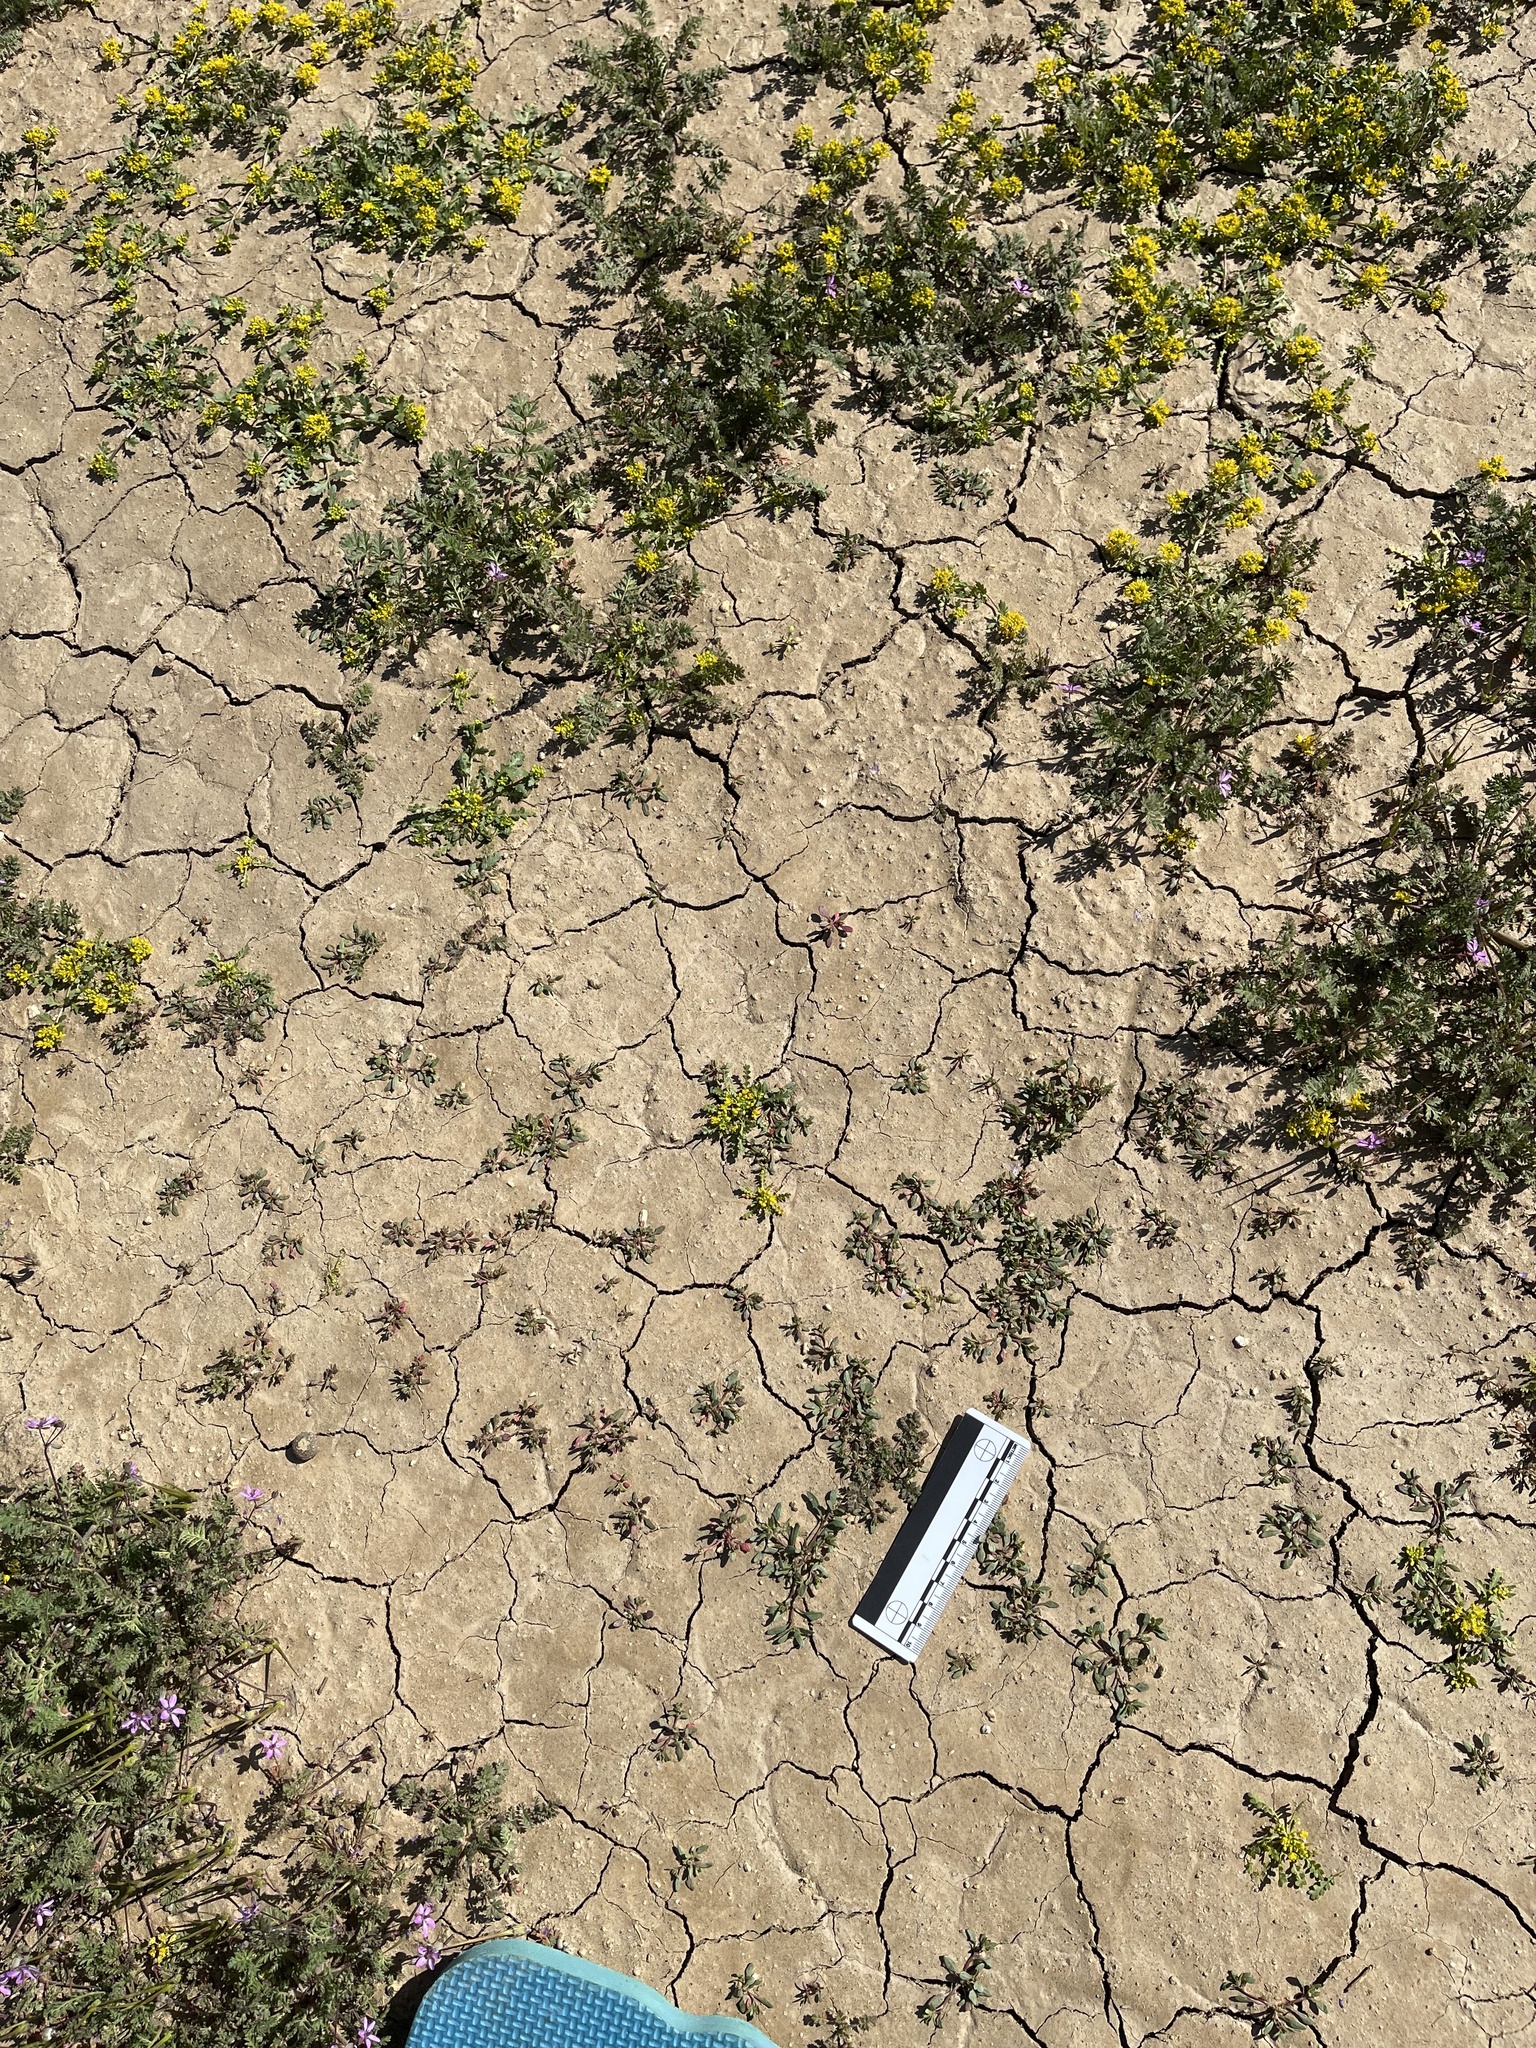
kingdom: Plantae
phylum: Tracheophyta
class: Magnoliopsida
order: Caryophyllales
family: Amaranthaceae
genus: Blitum
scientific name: Blitum nuttallianum
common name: Poverty-weed
